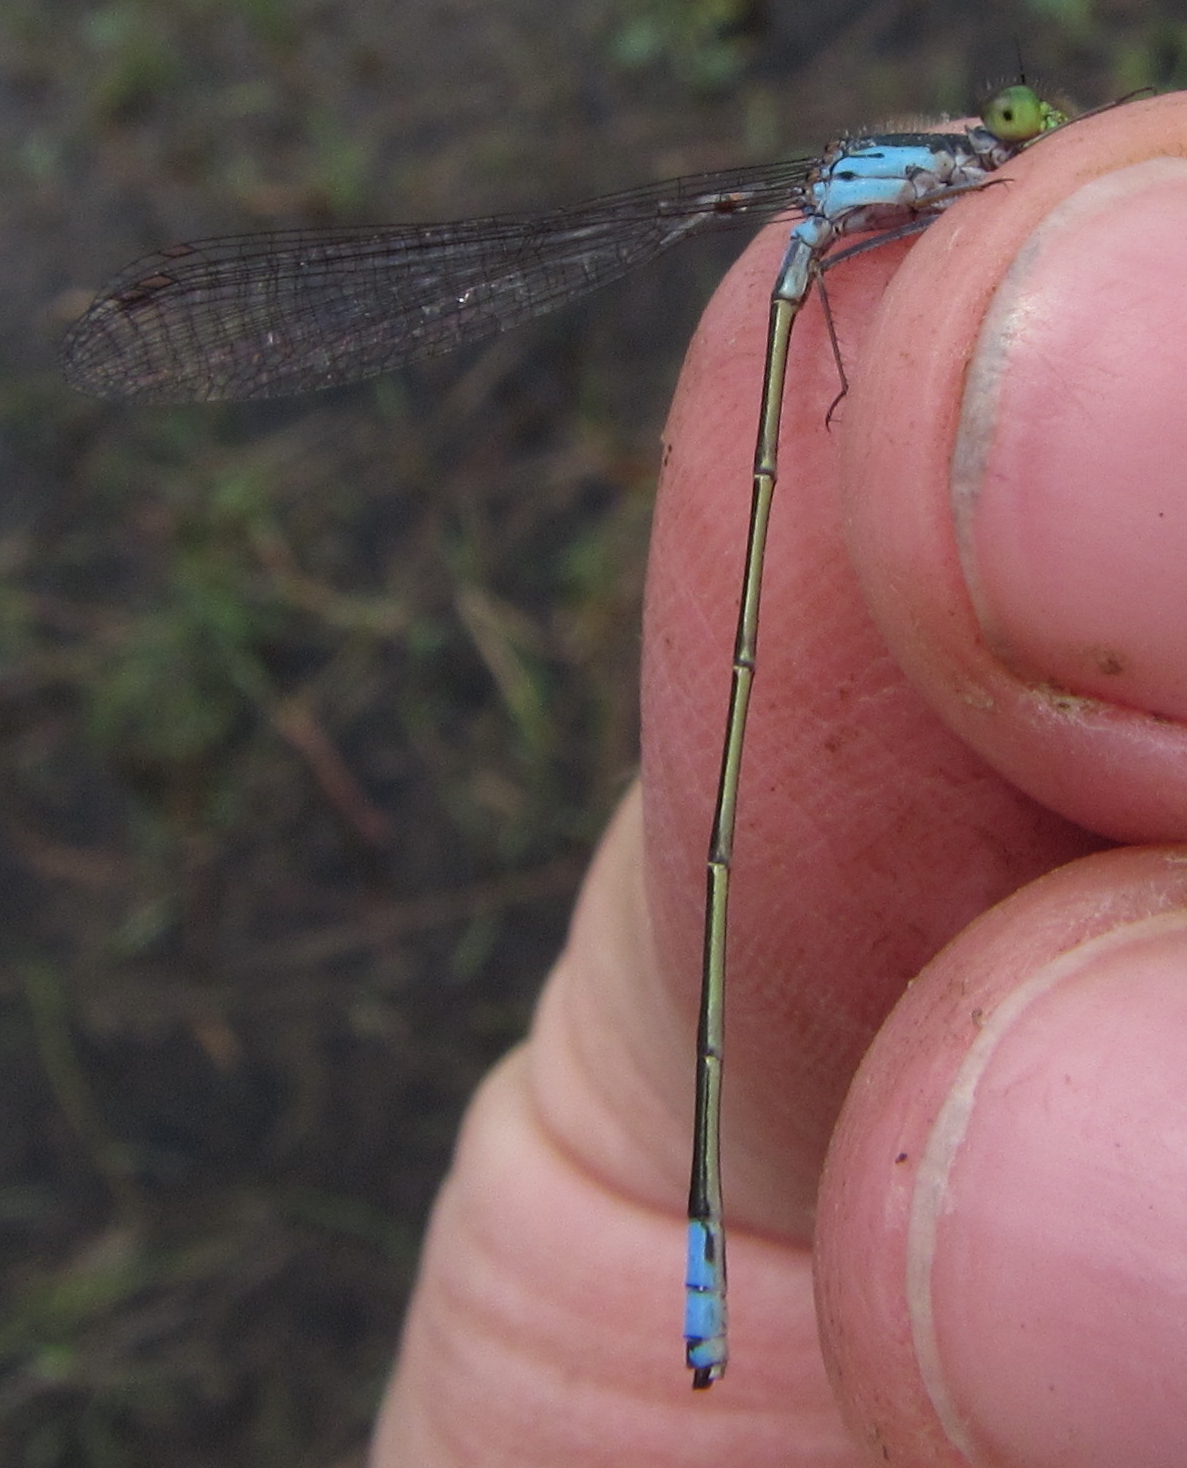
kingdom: Animalia
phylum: Arthropoda
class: Insecta
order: Odonata
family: Coenagrionidae
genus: Pseudagrion
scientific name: Pseudagrion deningi
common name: Dening's sprite
